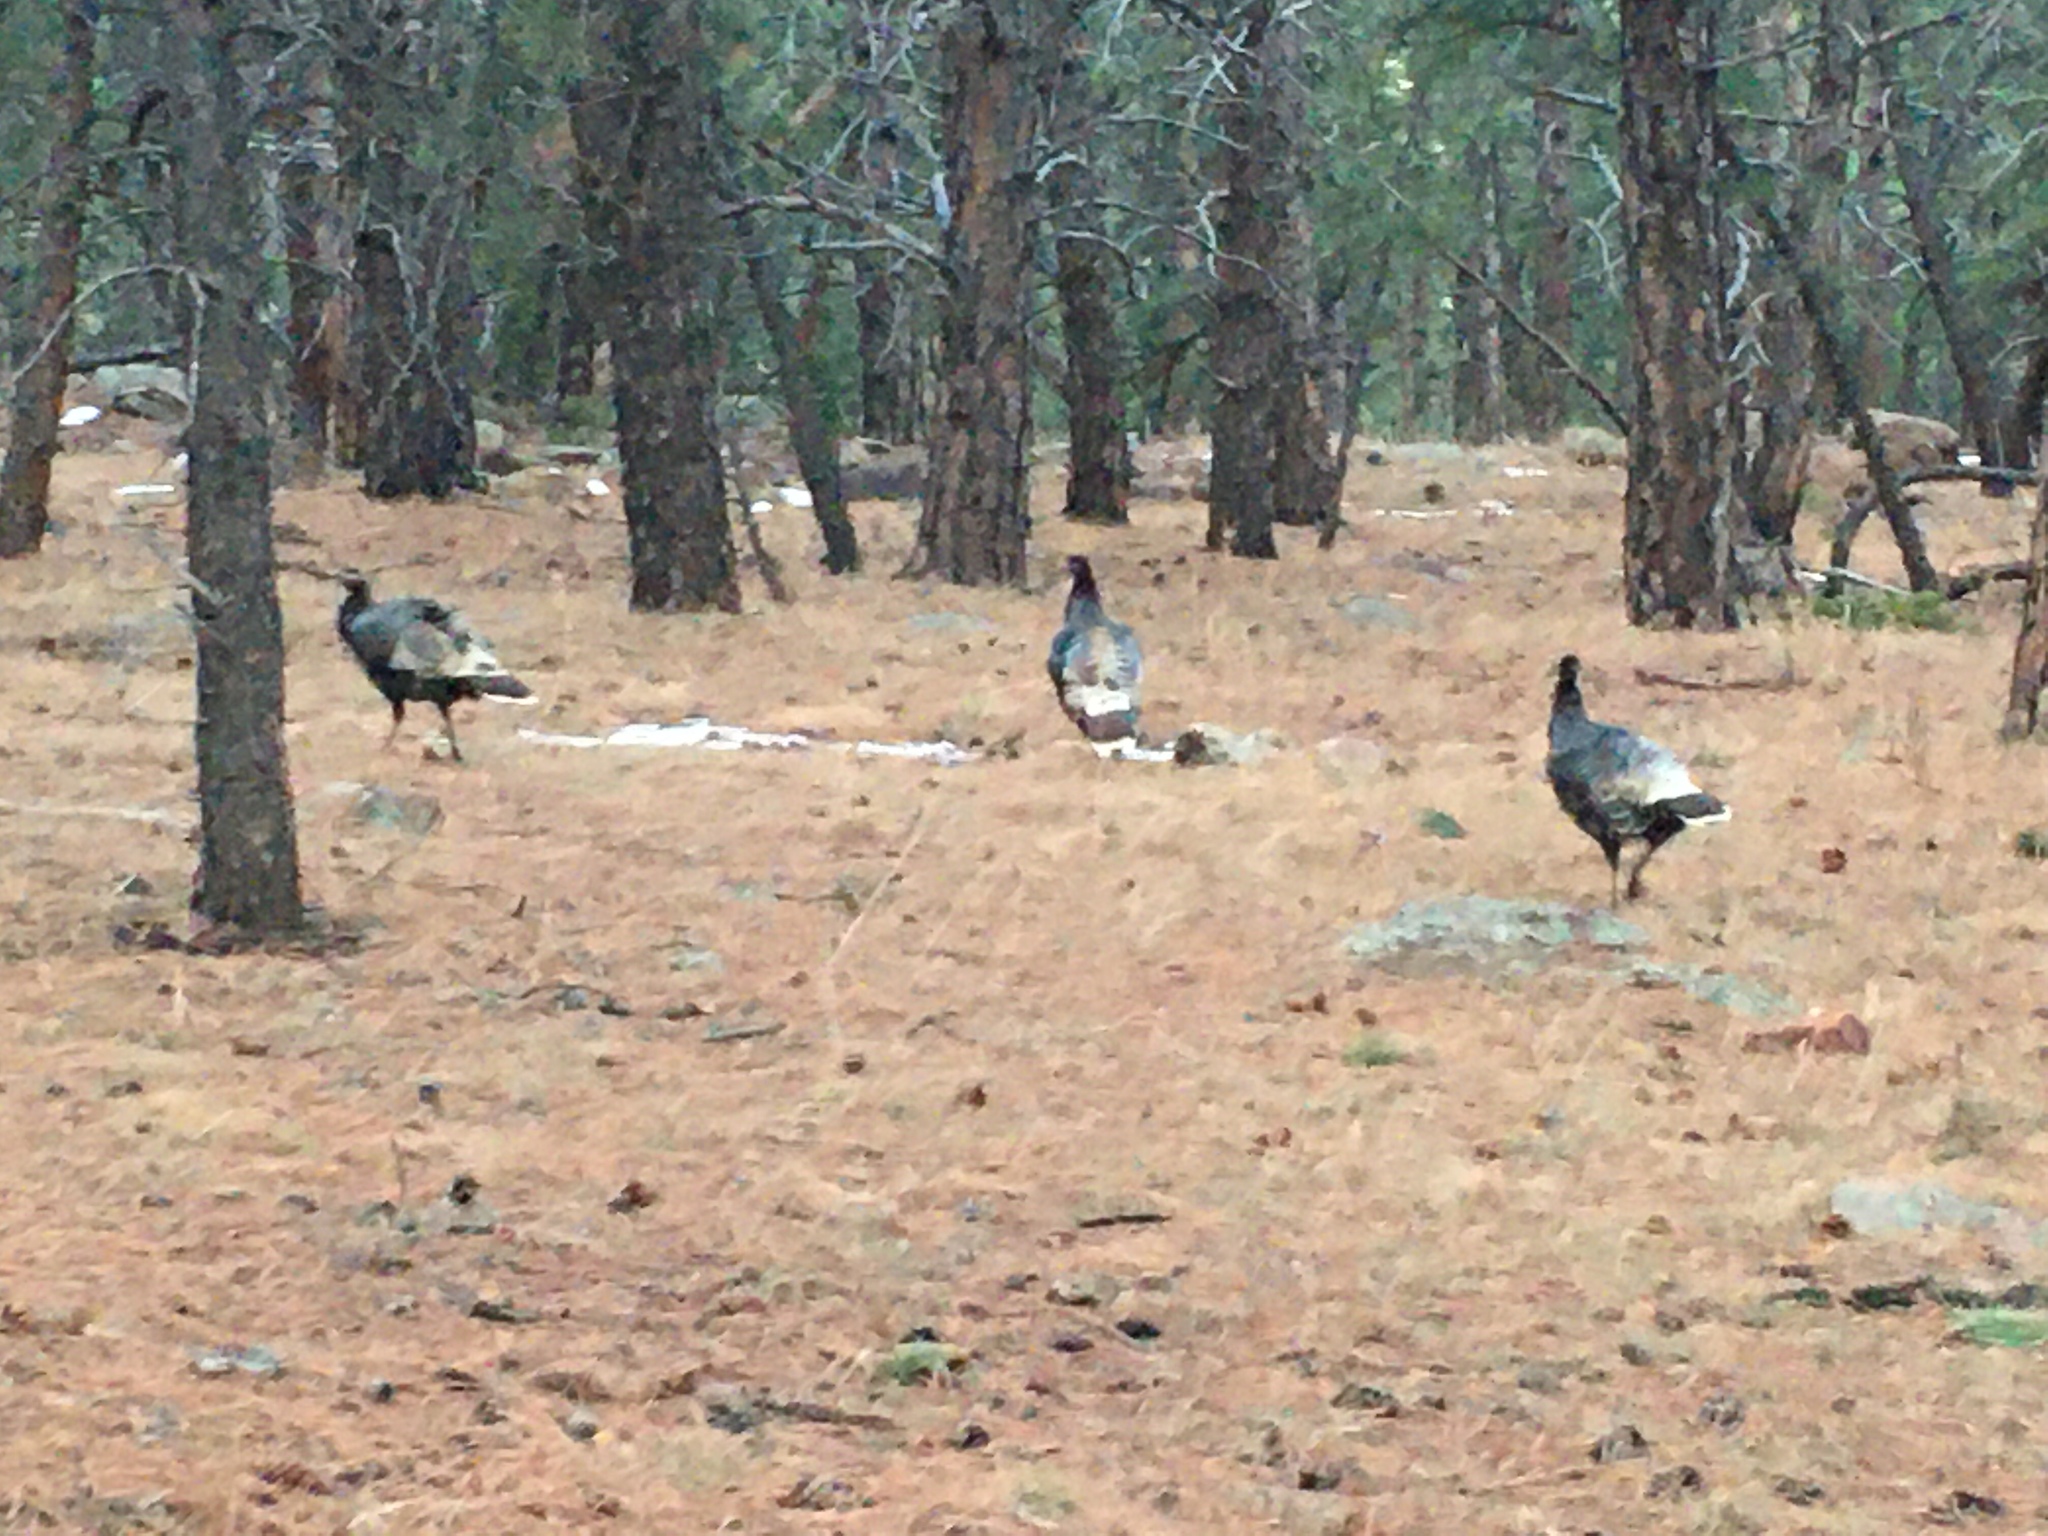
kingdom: Animalia
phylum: Chordata
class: Aves
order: Galliformes
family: Phasianidae
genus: Meleagris
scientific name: Meleagris gallopavo
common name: Wild turkey
